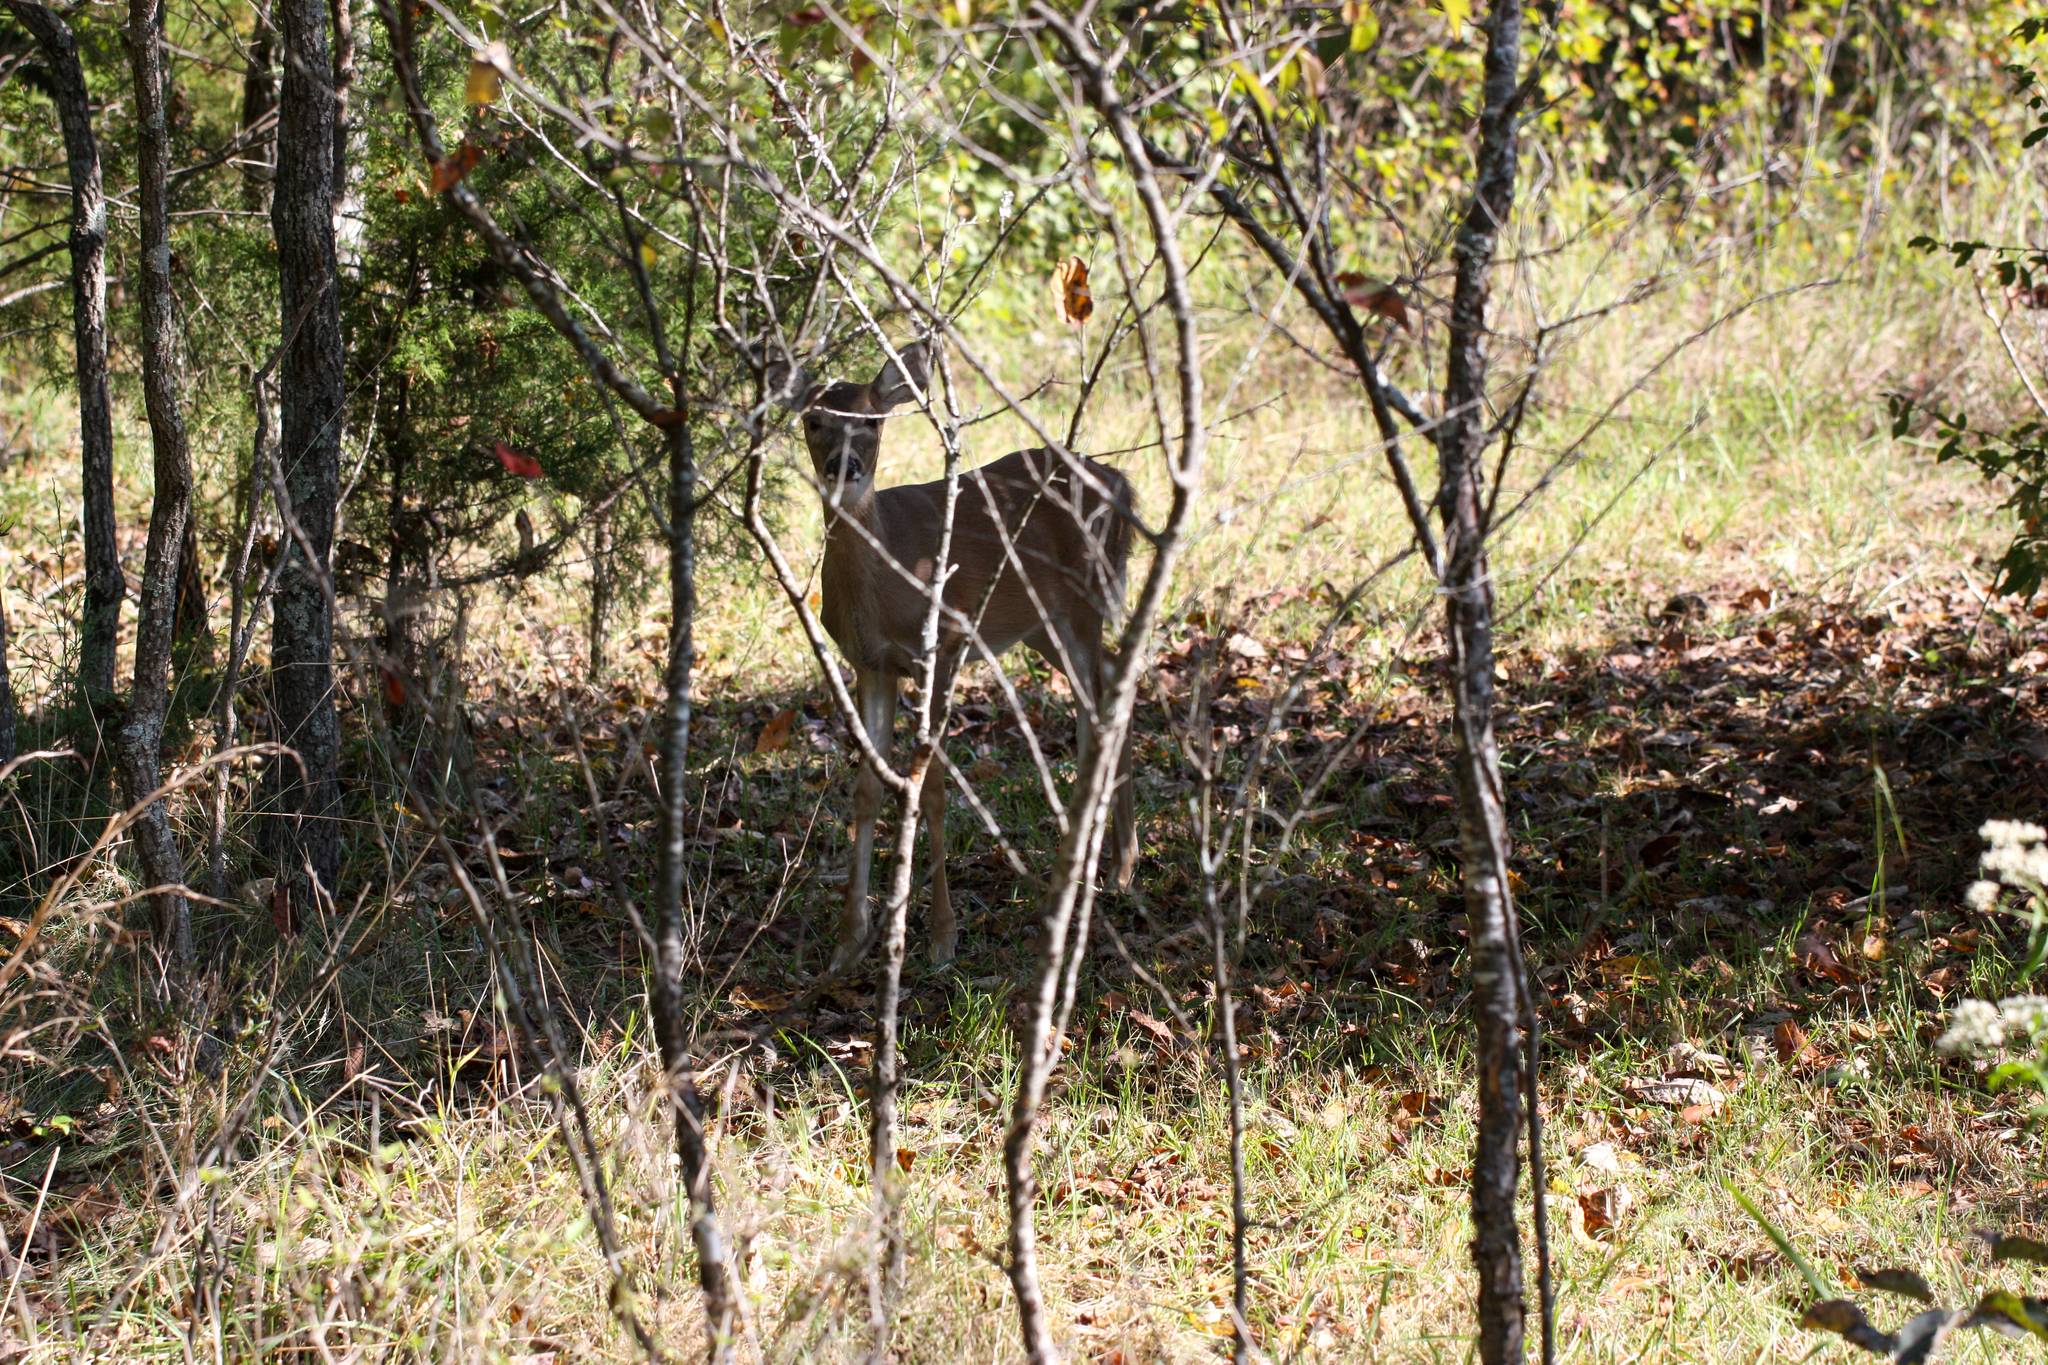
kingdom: Animalia
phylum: Chordata
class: Mammalia
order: Artiodactyla
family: Cervidae
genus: Odocoileus
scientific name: Odocoileus virginianus
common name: White-tailed deer
